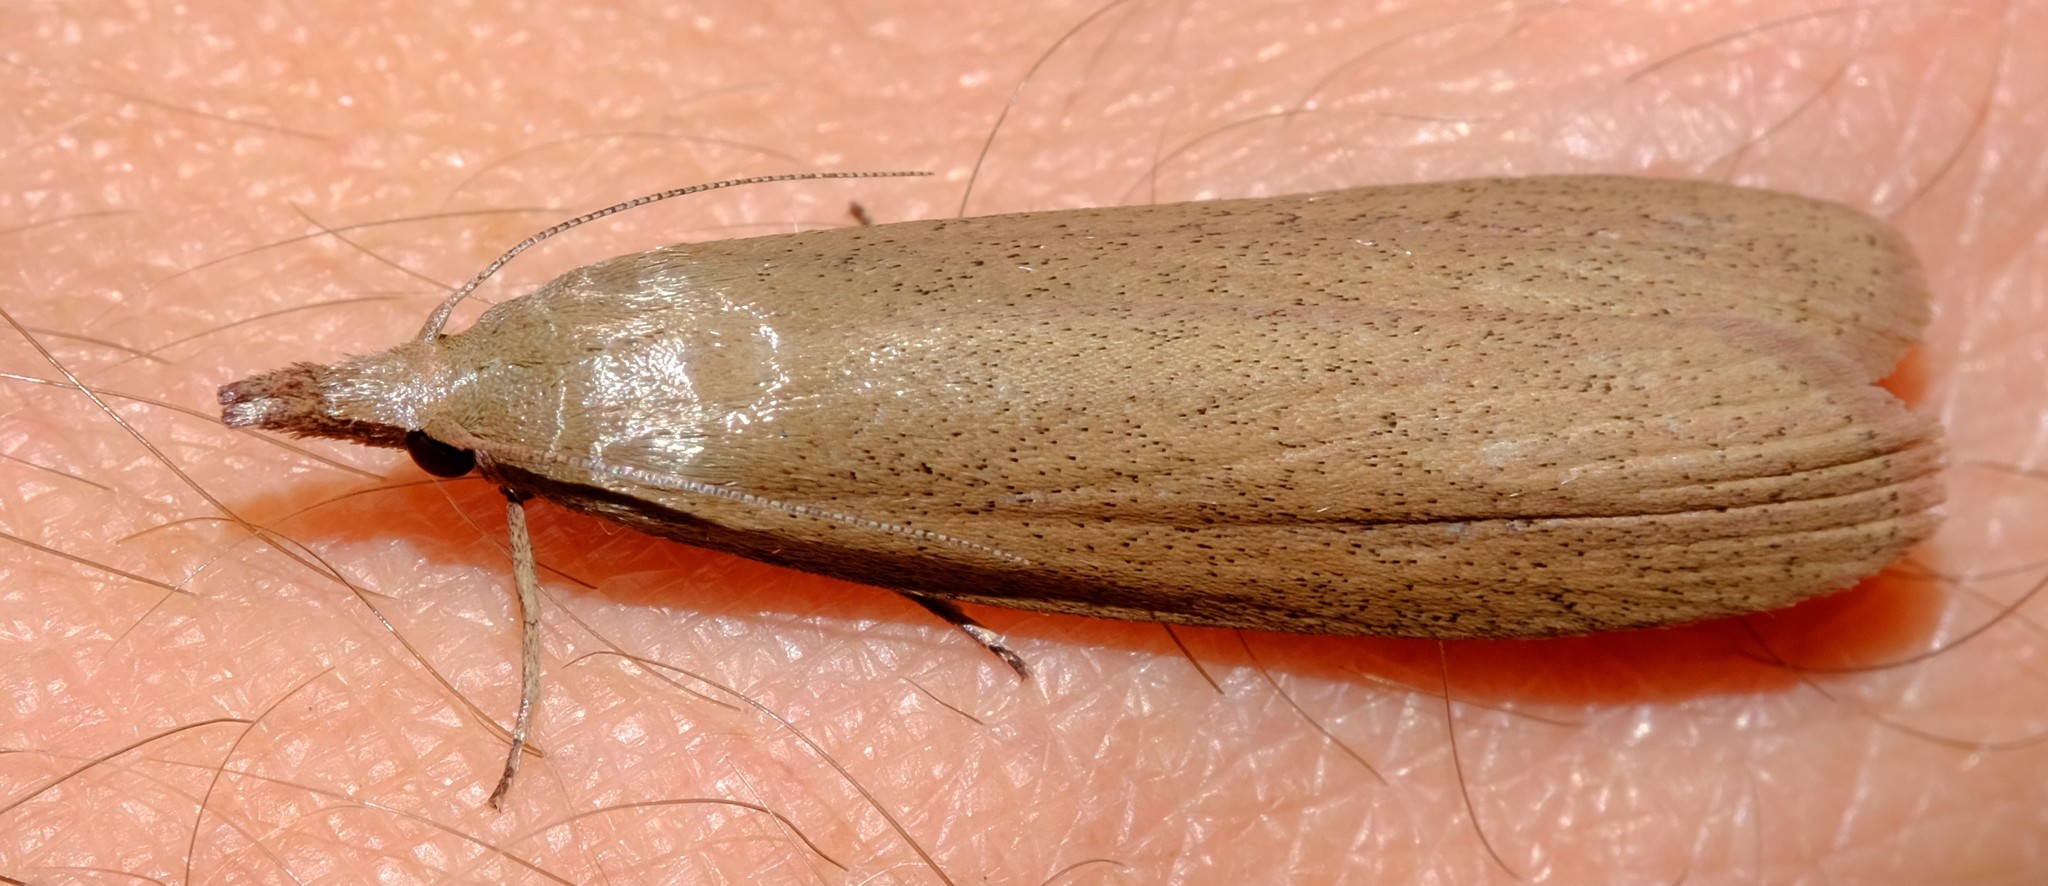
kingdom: Animalia
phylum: Arthropoda
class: Insecta
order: Lepidoptera
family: Pyralidae
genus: Meyriccia
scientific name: Meyriccia latro
